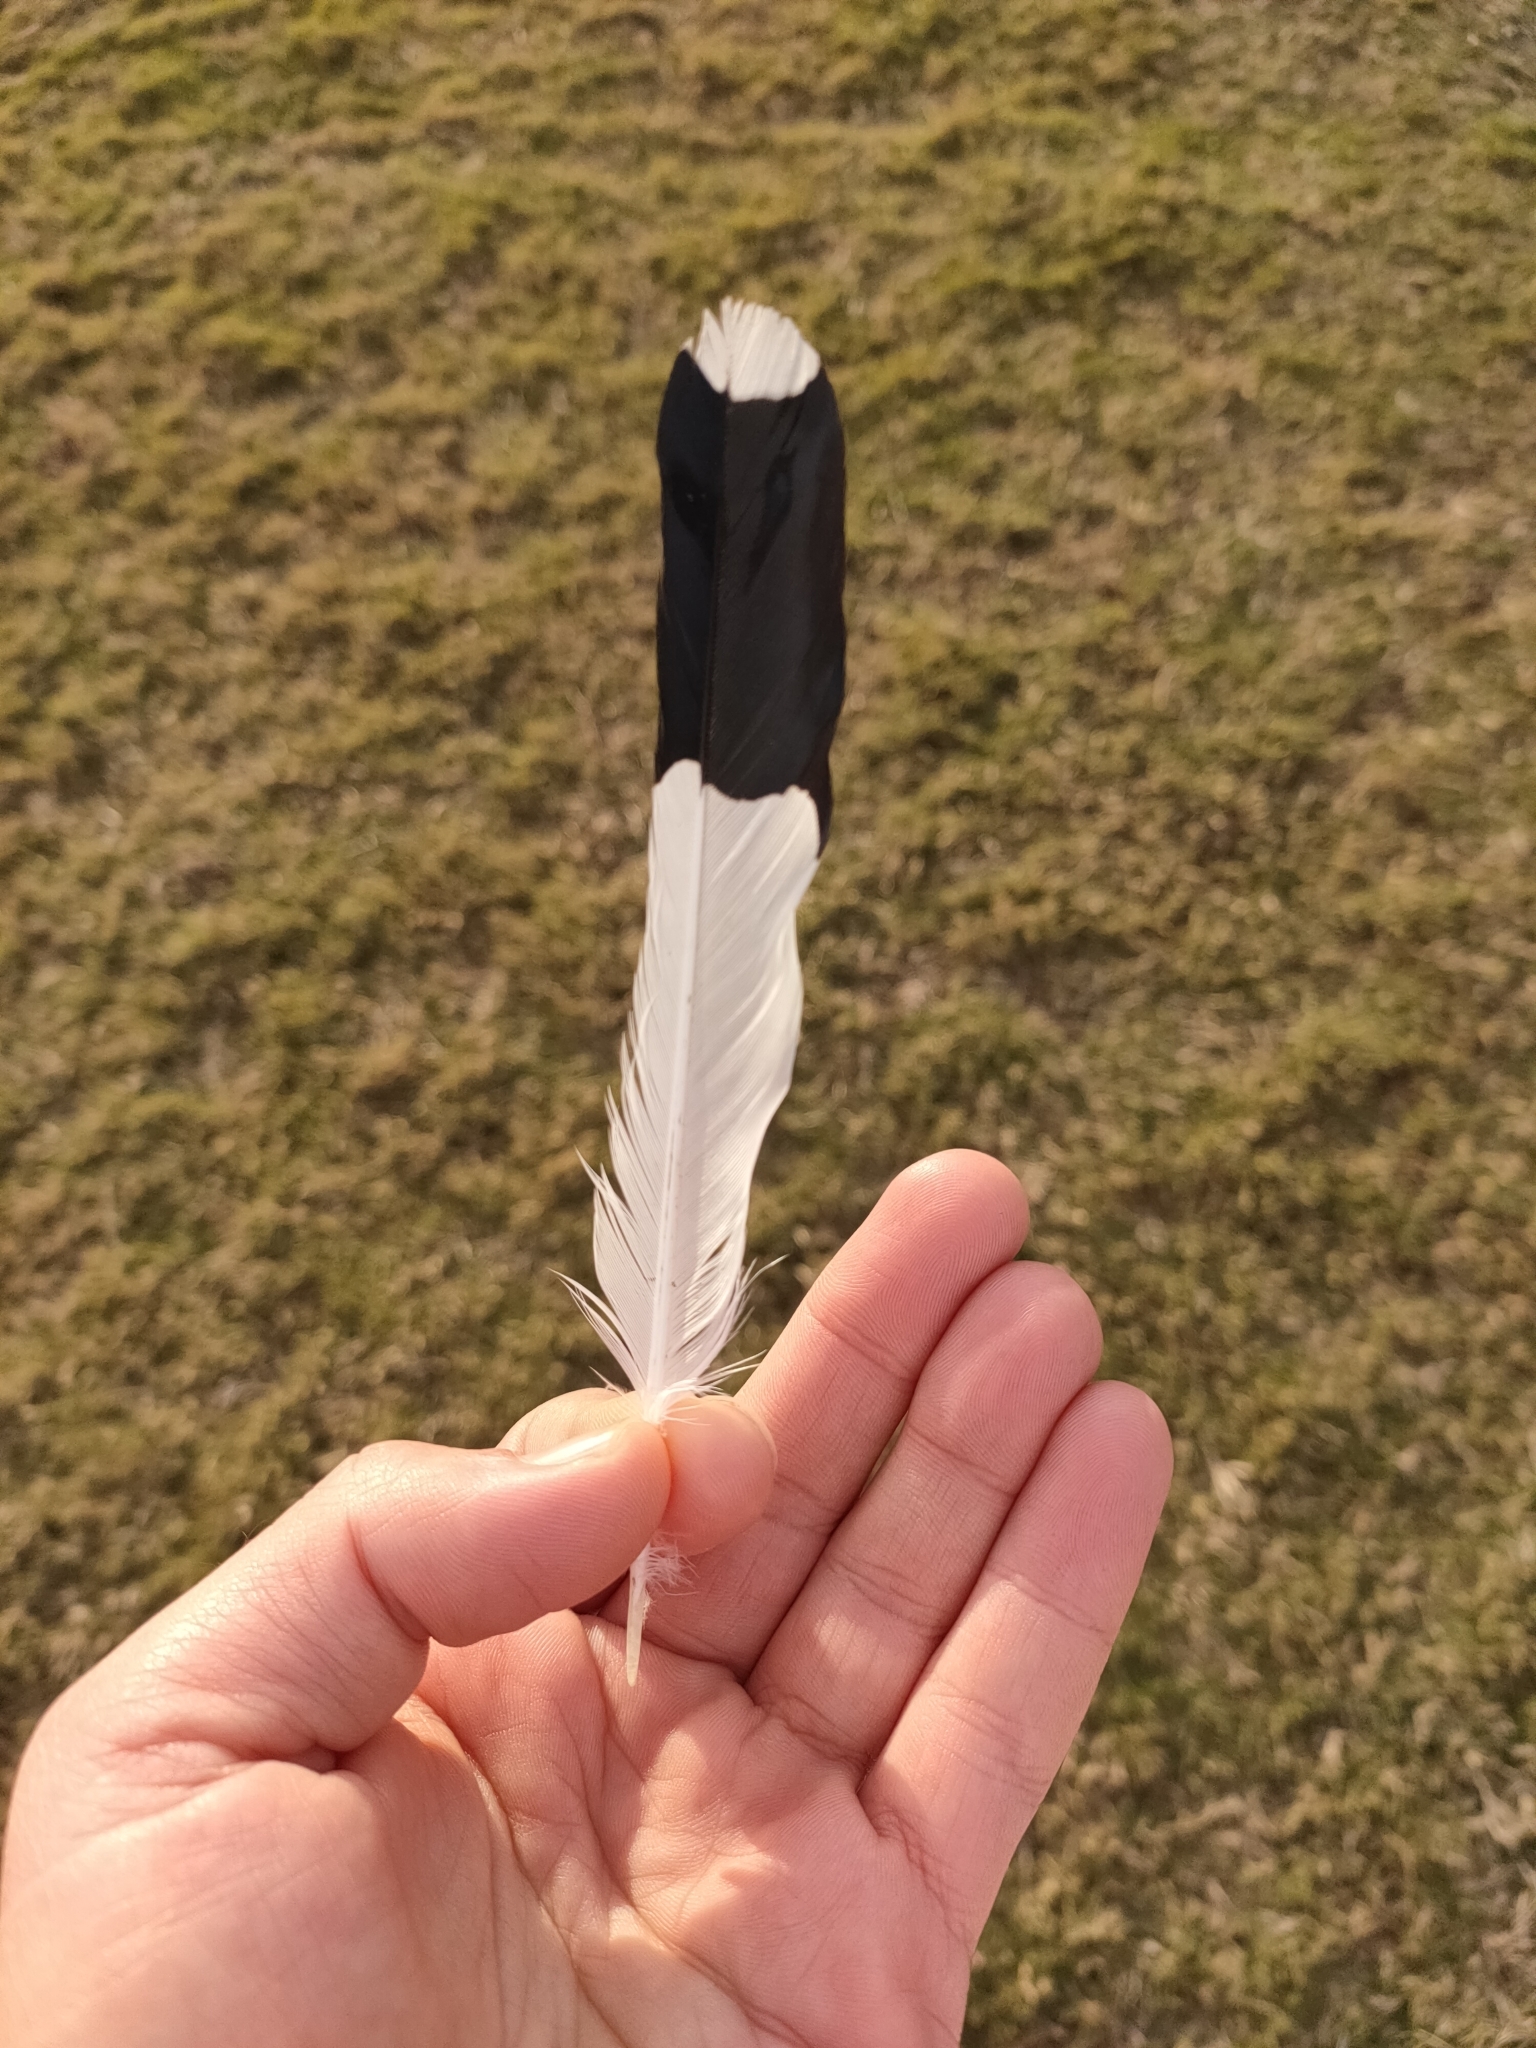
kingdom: Animalia
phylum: Chordata
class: Aves
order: Passeriformes
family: Monarchidae
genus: Grallina
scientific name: Grallina cyanoleuca
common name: Magpie-lark
